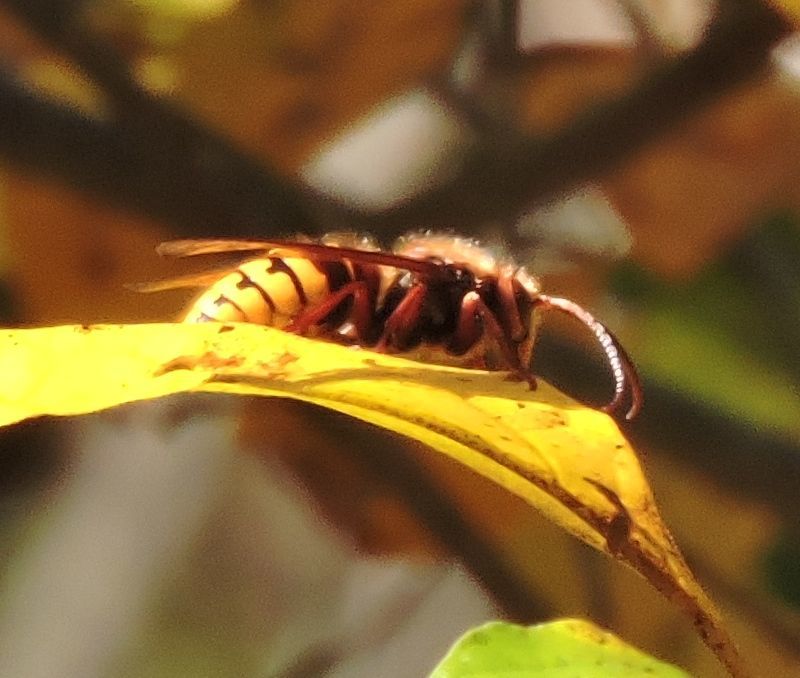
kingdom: Animalia
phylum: Arthropoda
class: Insecta
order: Hymenoptera
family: Vespidae
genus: Vespa
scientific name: Vespa crabro
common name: Hornet
